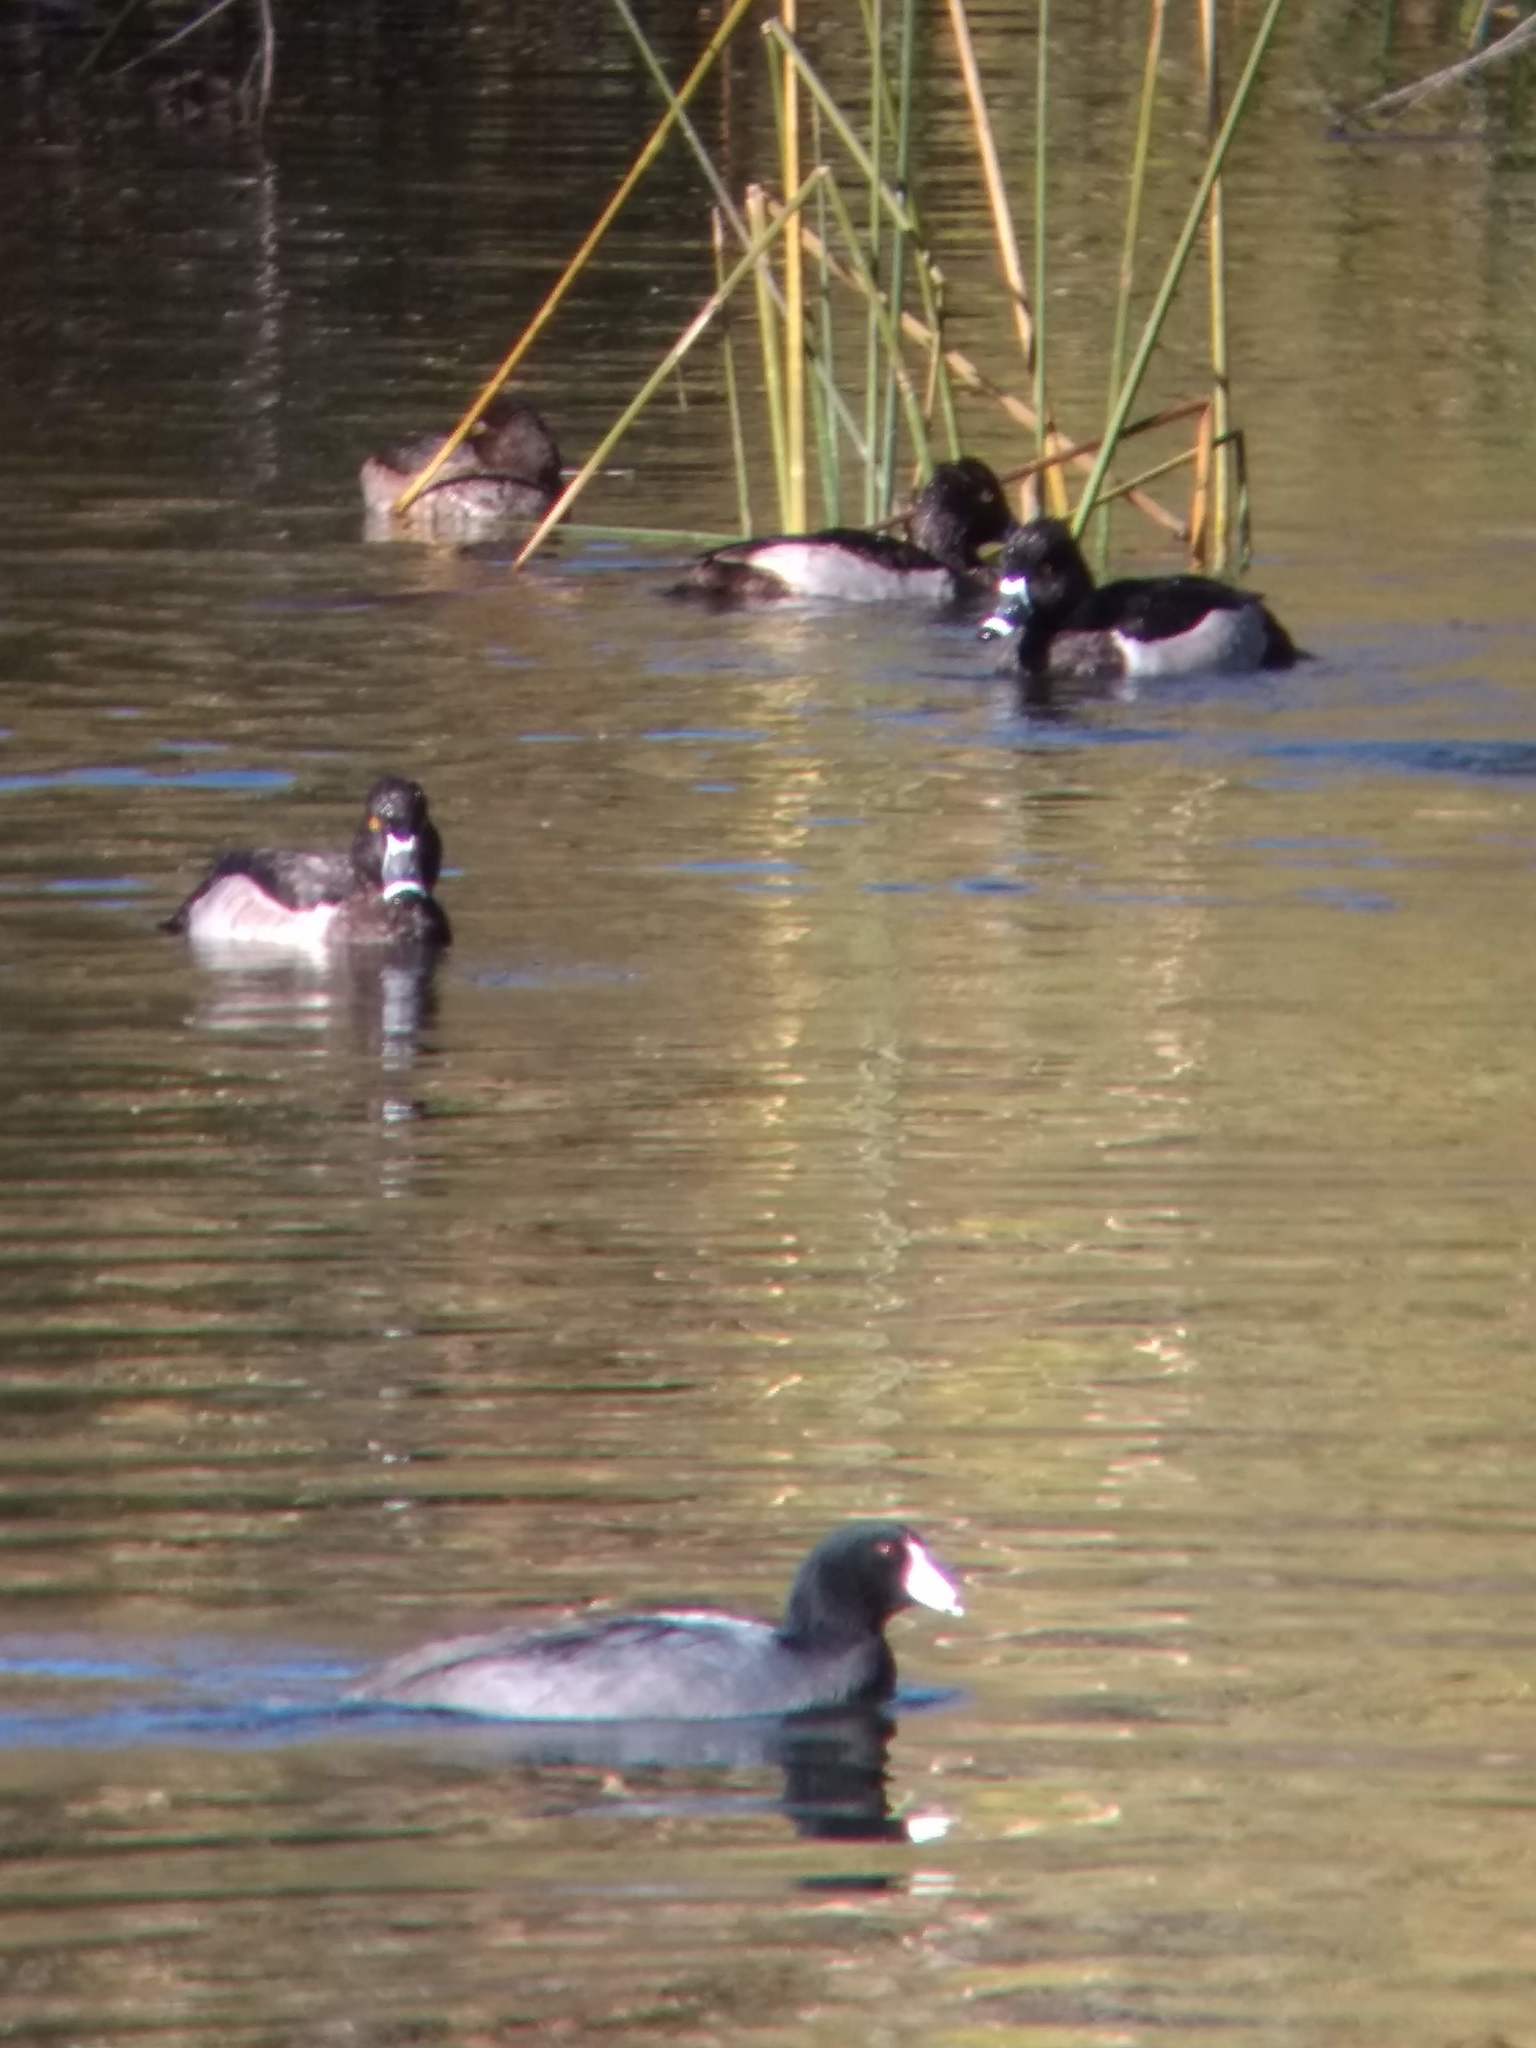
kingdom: Animalia
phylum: Chordata
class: Aves
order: Anseriformes
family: Anatidae
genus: Aythya
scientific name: Aythya collaris
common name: Ring-necked duck
